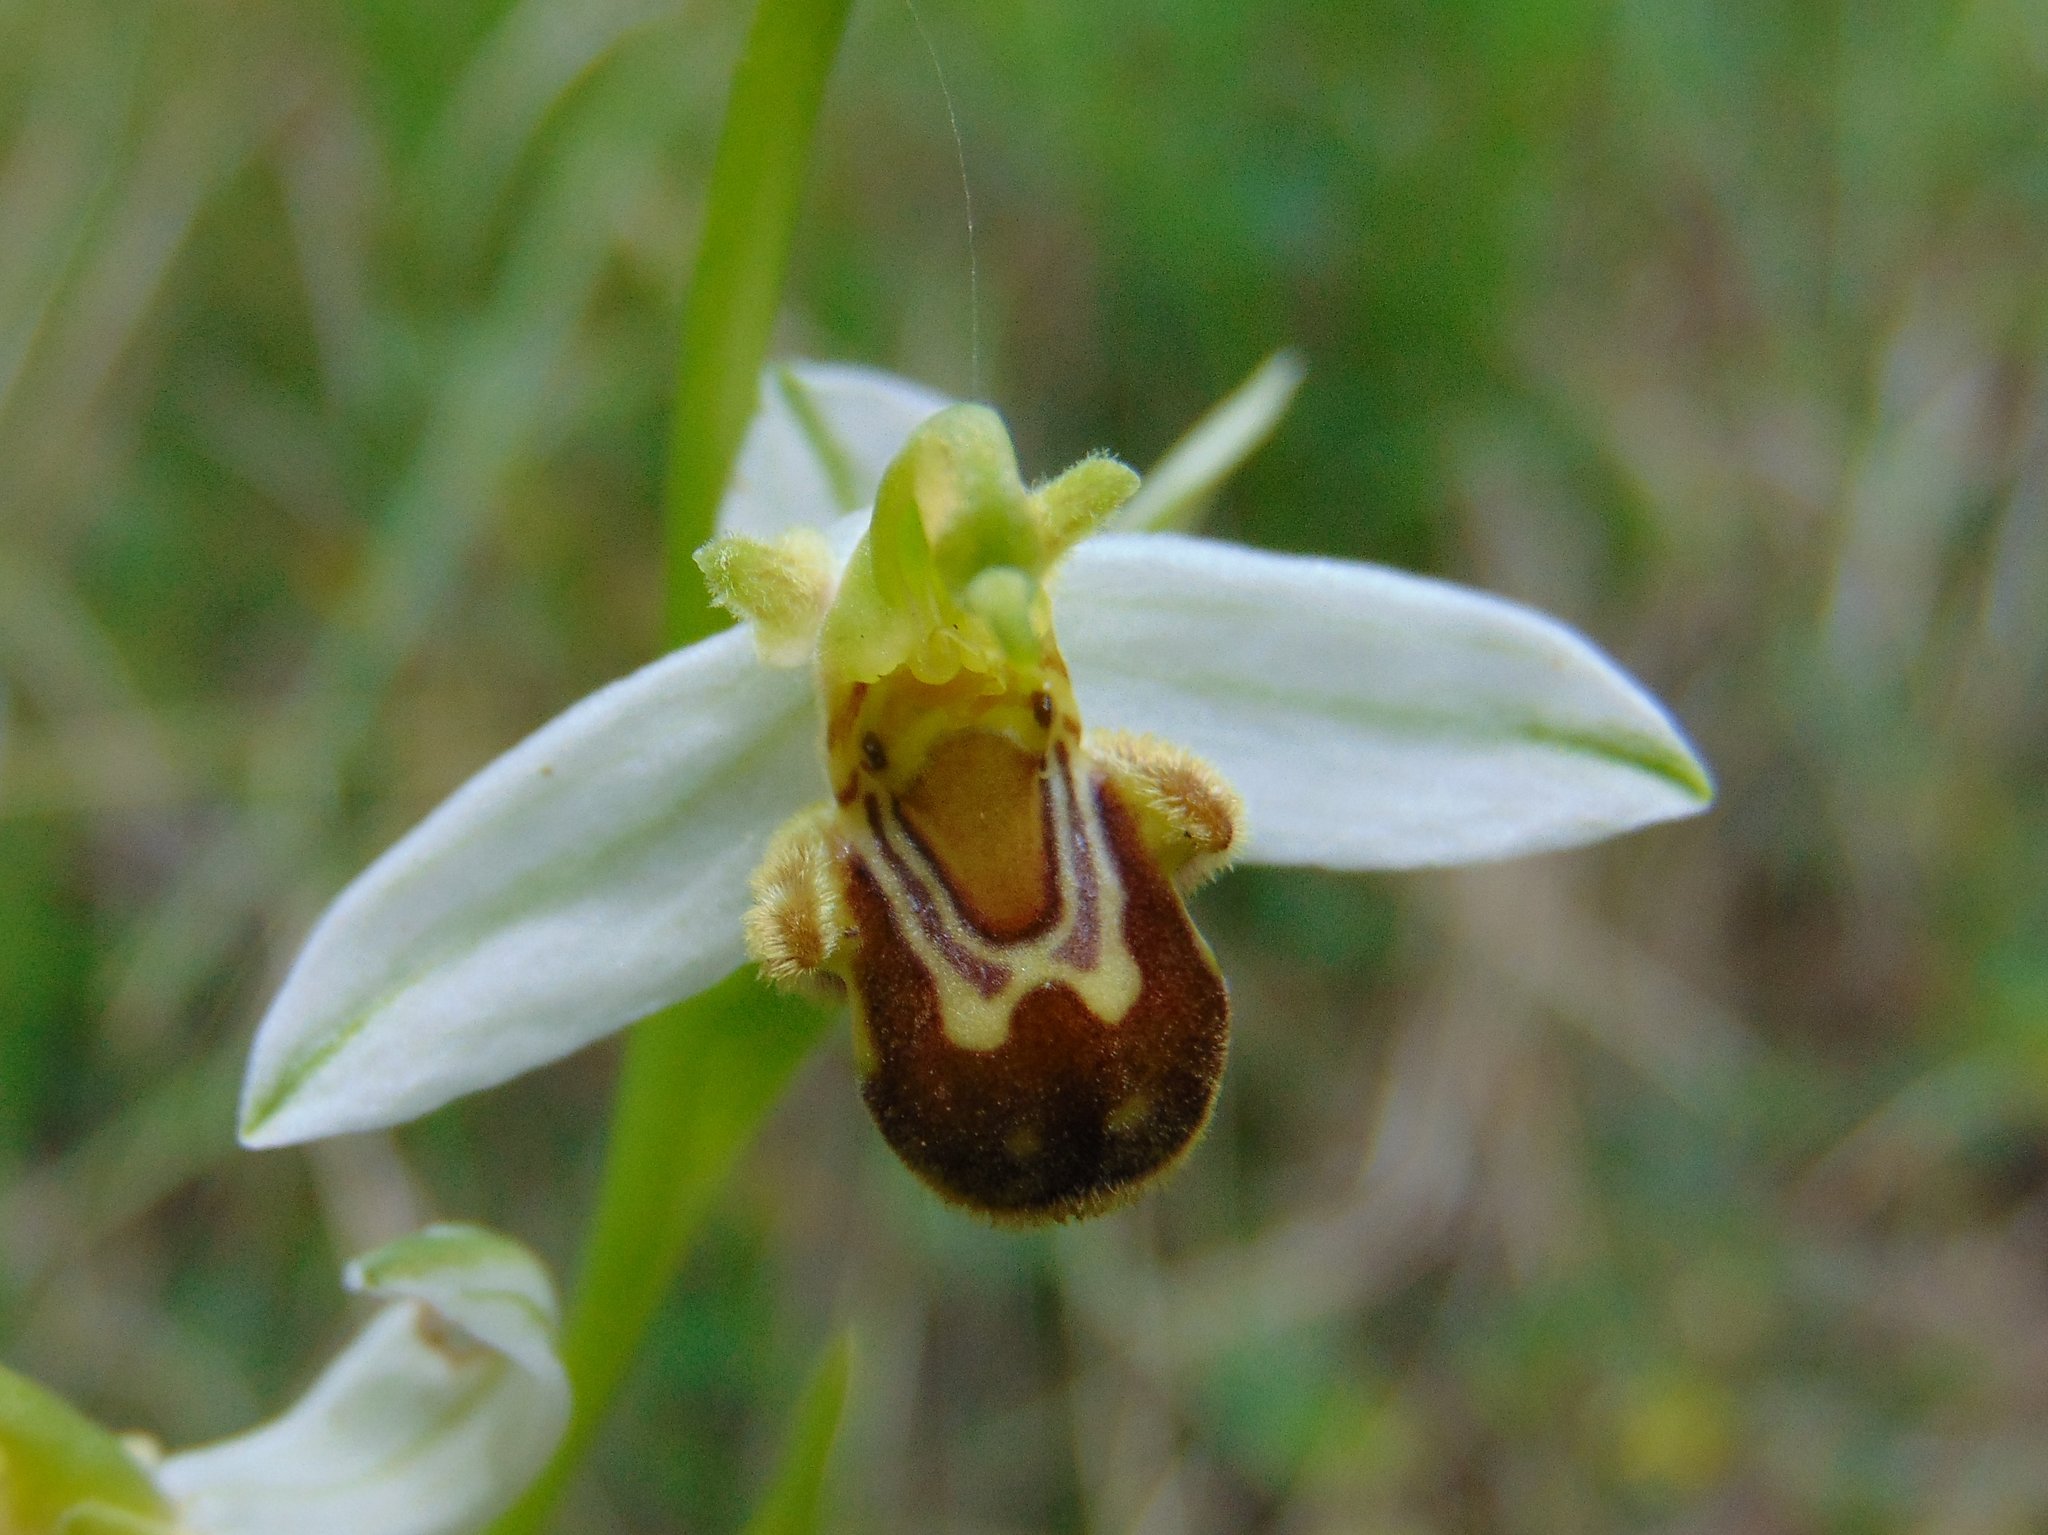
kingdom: Plantae
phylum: Tracheophyta
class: Liliopsida
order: Asparagales
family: Orchidaceae
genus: Ophrys
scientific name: Ophrys apifera
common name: Bee orchid
